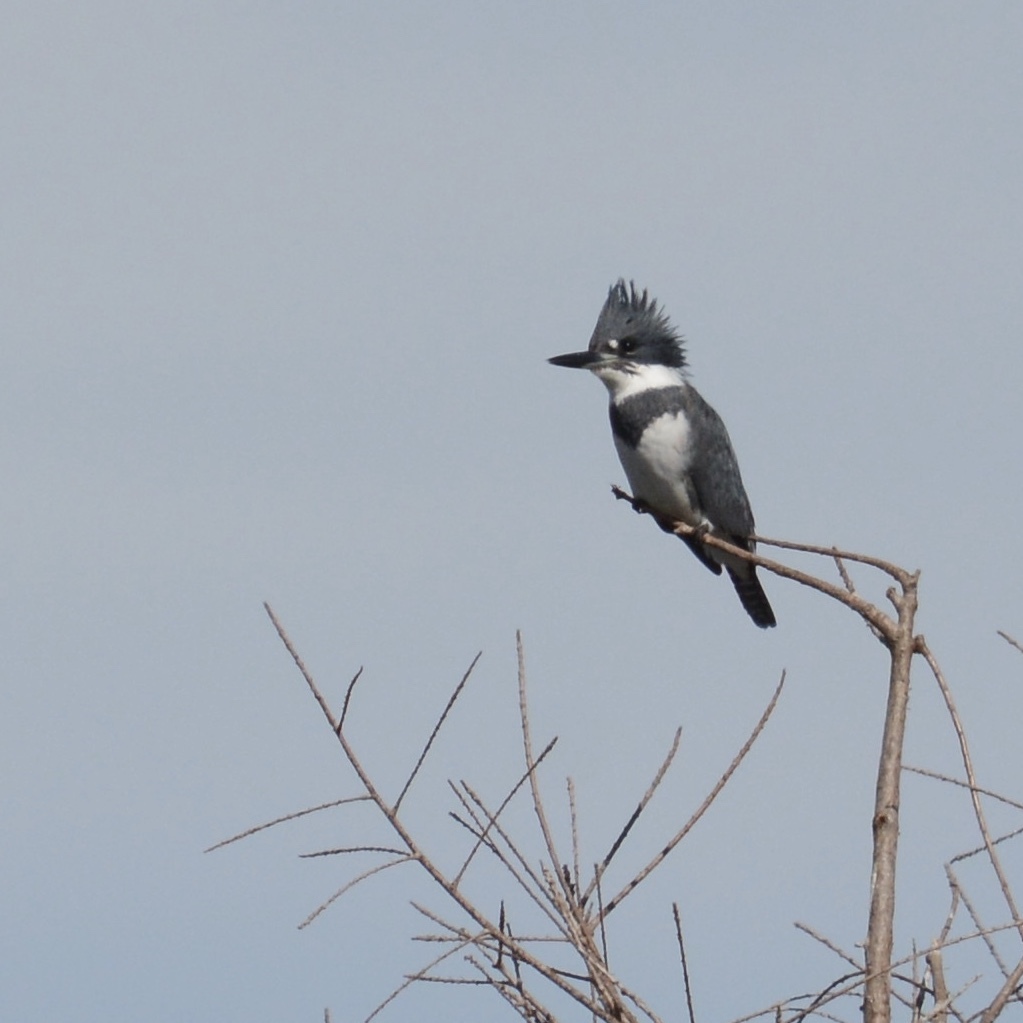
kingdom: Animalia
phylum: Chordata
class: Aves
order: Coraciiformes
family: Alcedinidae
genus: Megaceryle
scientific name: Megaceryle alcyon
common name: Belted kingfisher
